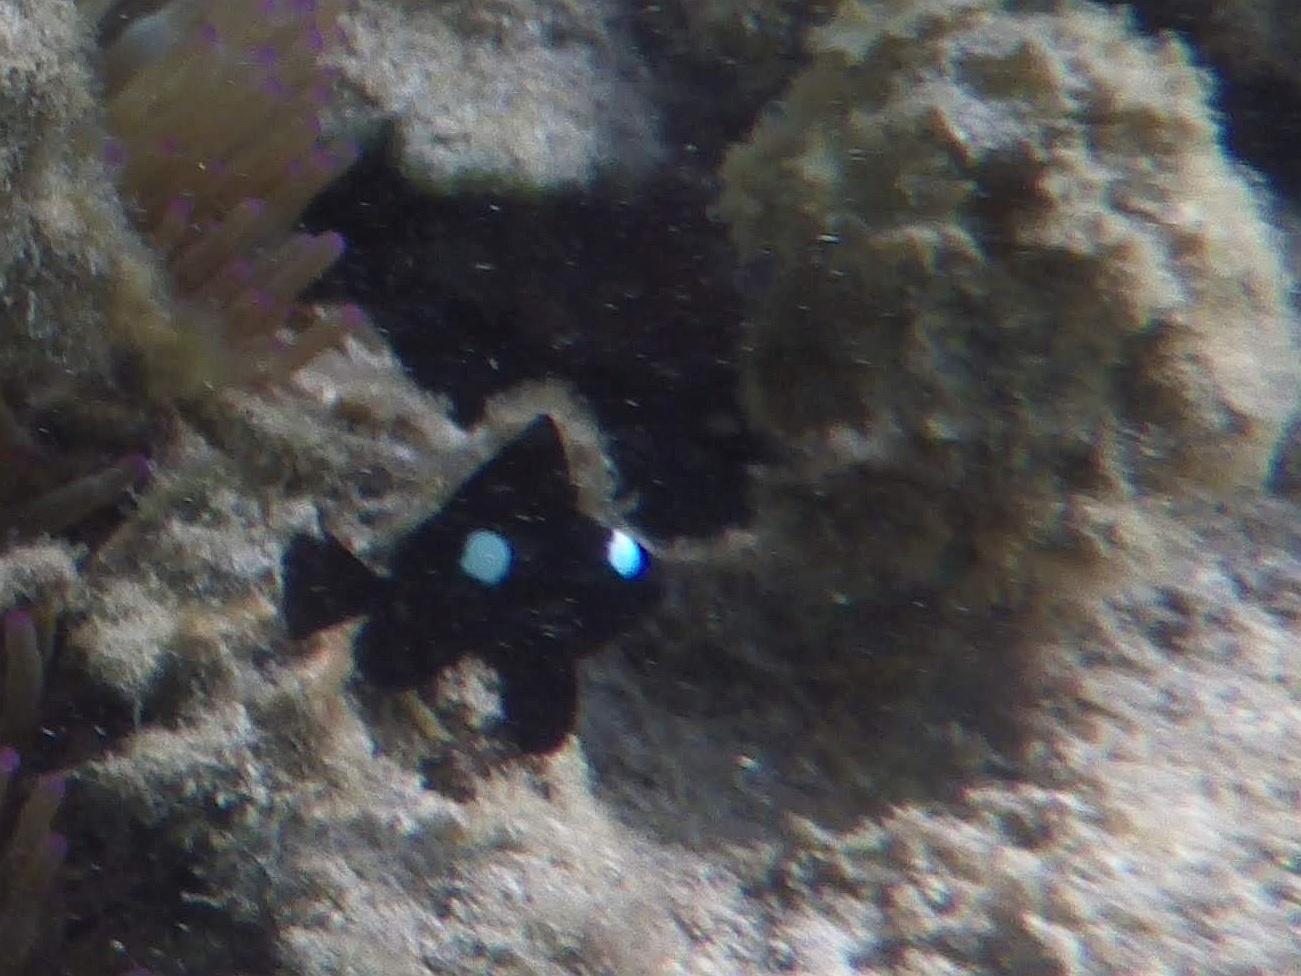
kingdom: Animalia
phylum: Chordata
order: Perciformes
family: Pomacentridae
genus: Dascyllus
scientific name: Dascyllus trimaculatus
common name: Threespot dascyllus
